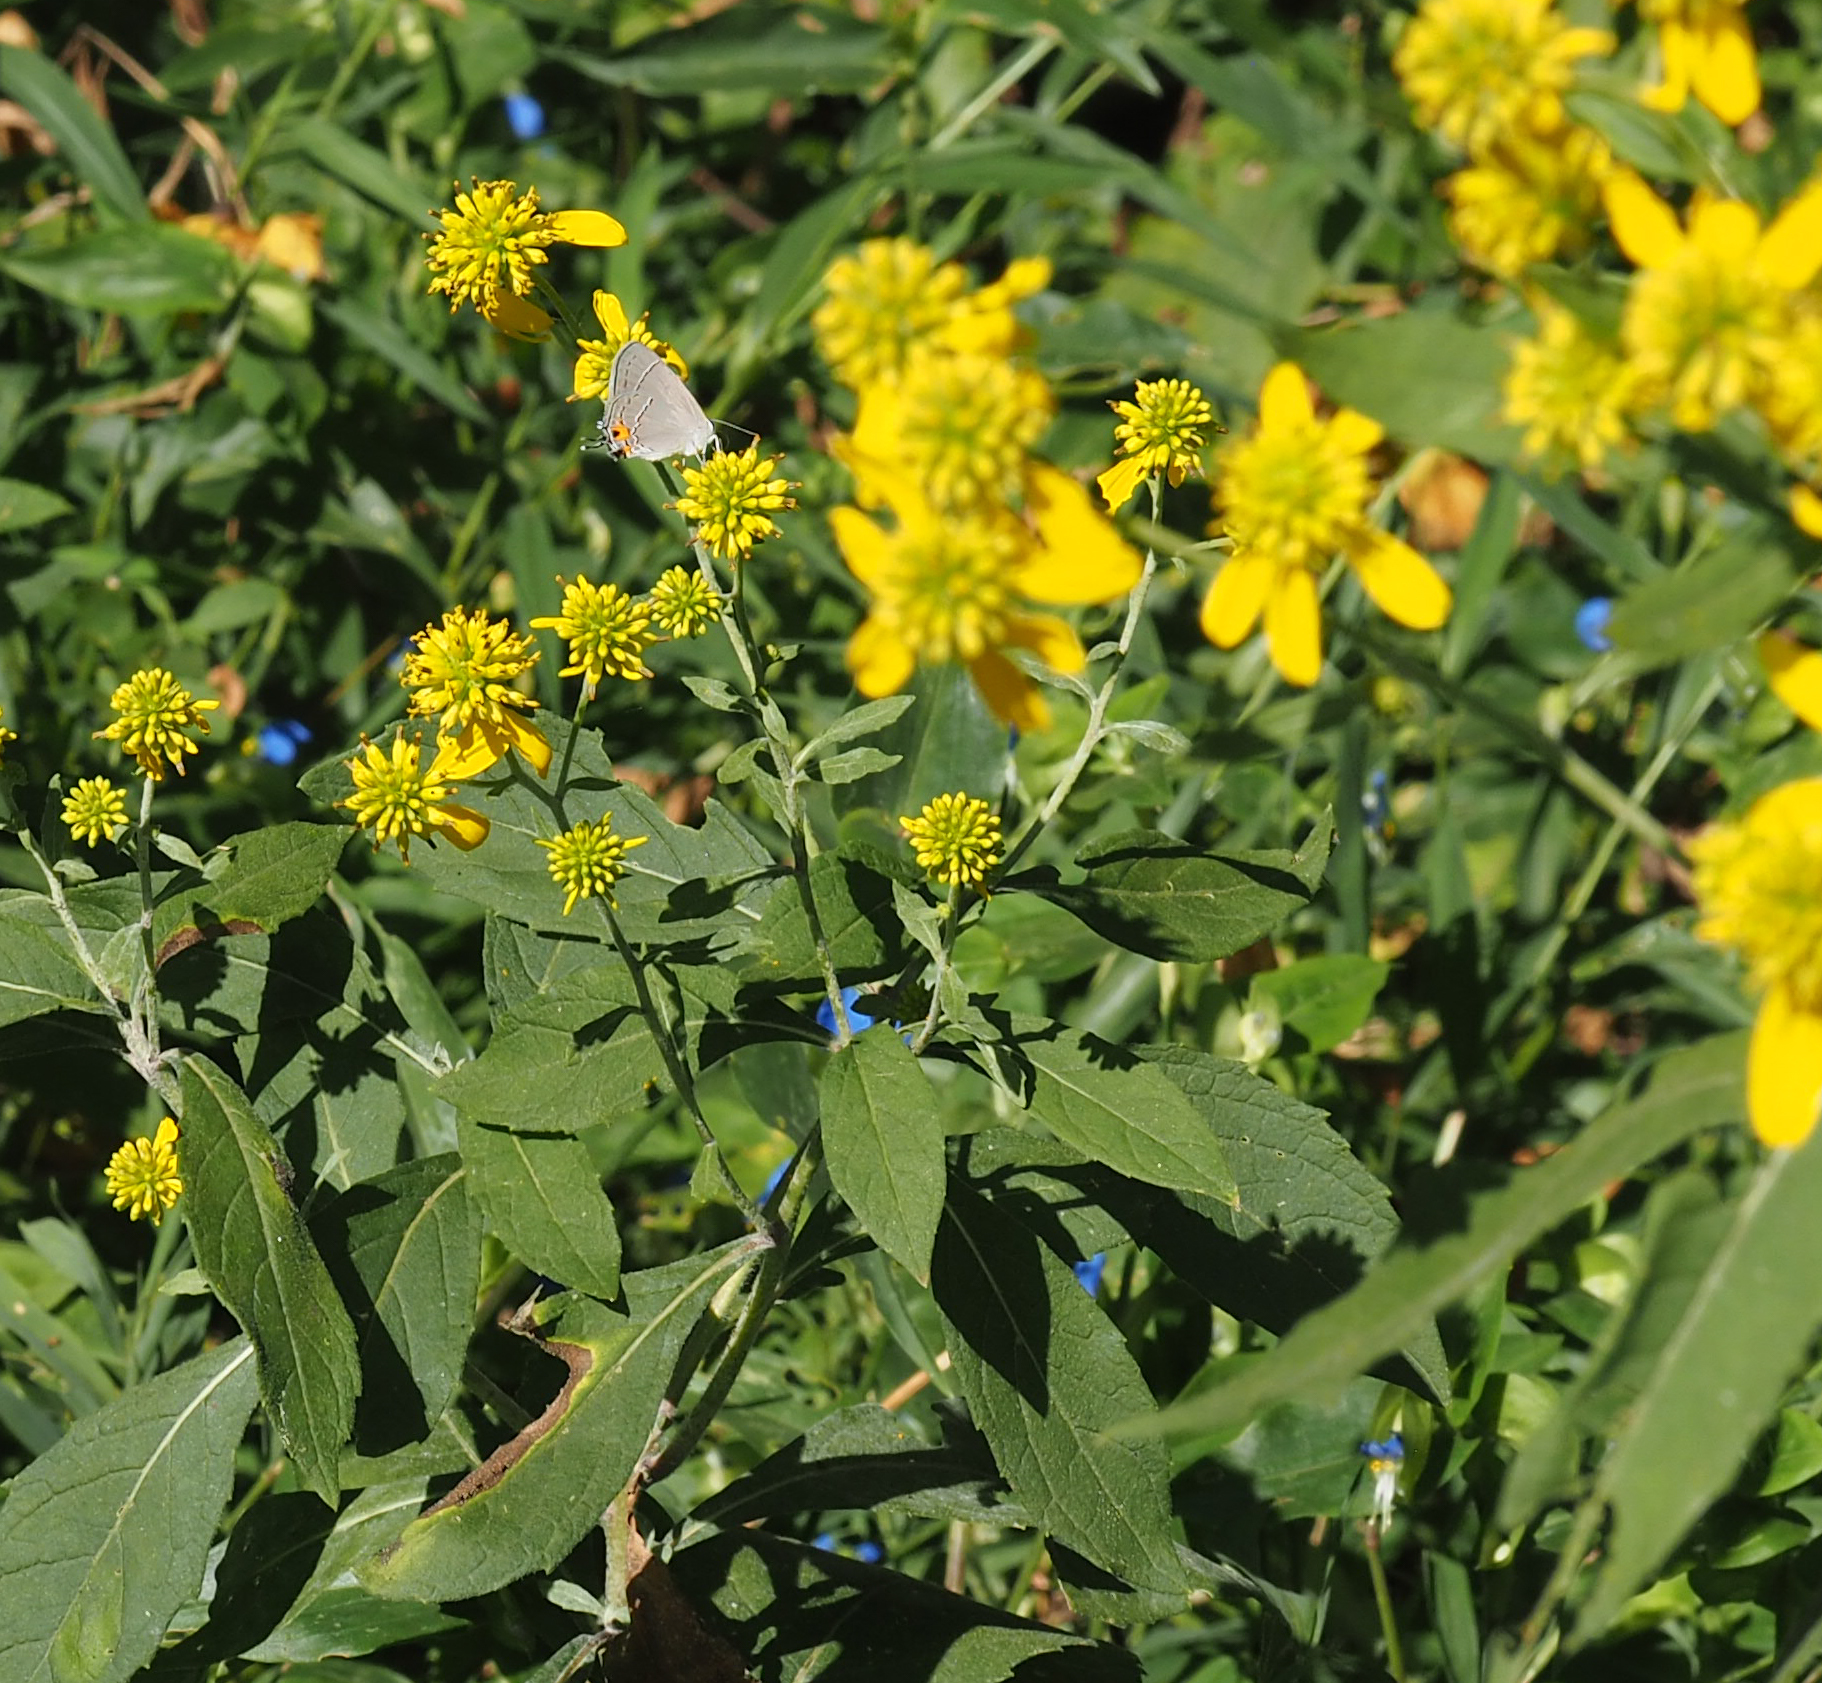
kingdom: Plantae
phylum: Tracheophyta
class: Magnoliopsida
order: Asterales
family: Asteraceae
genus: Verbesina
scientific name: Verbesina alternifolia
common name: Wingstem
